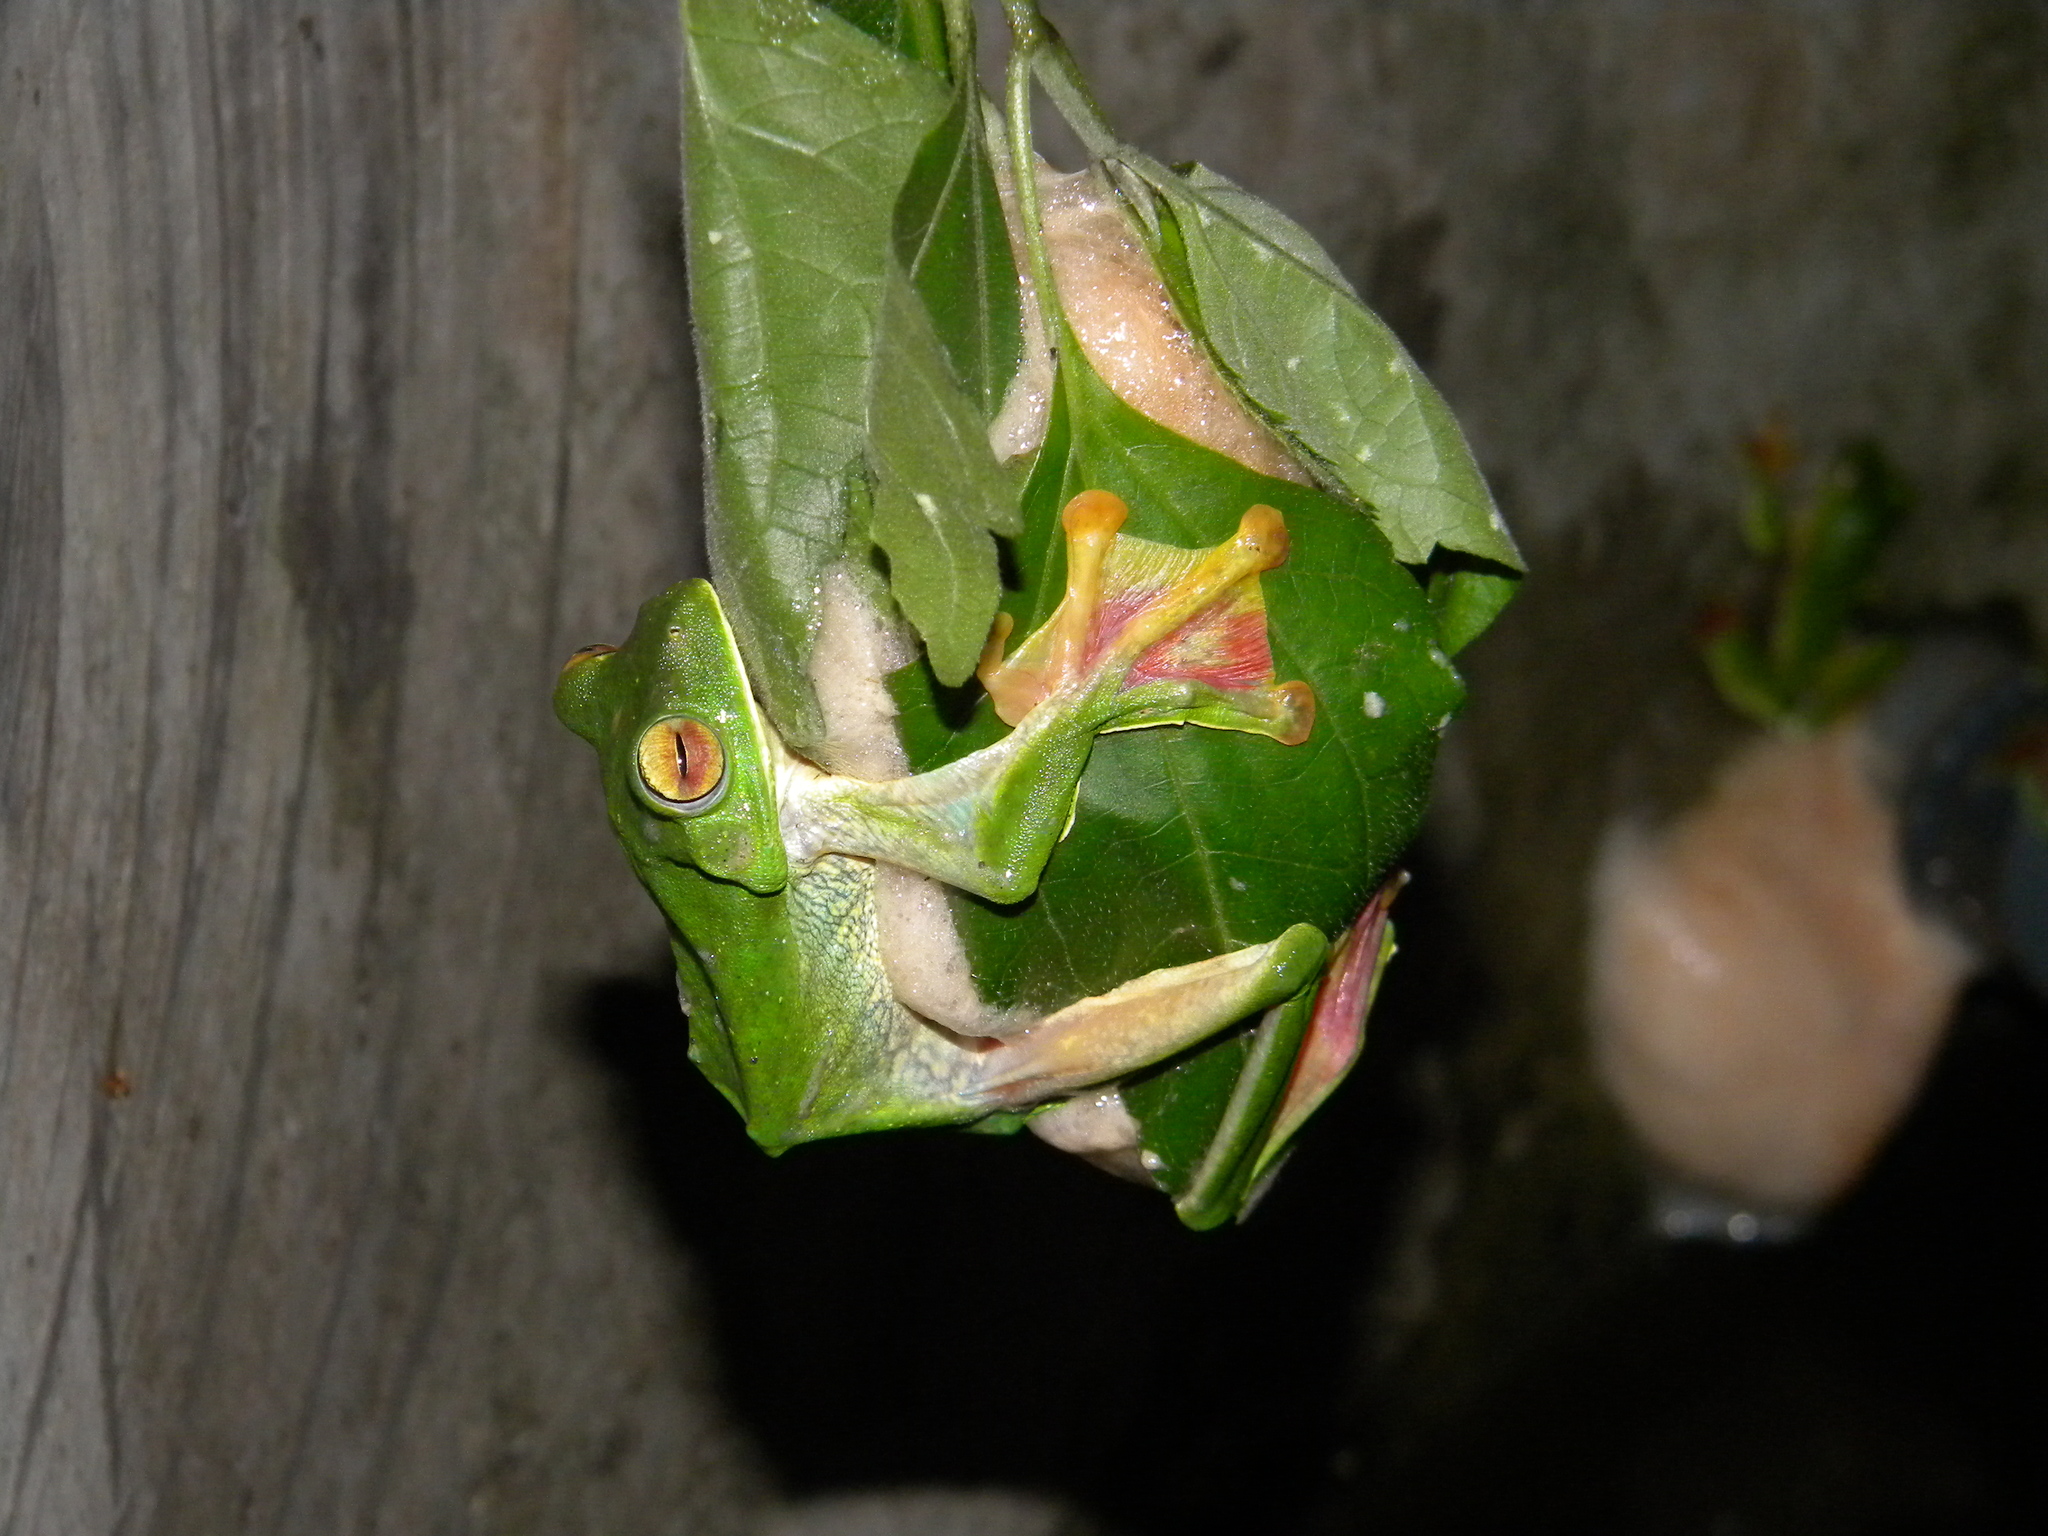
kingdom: Animalia
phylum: Chordata
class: Amphibia
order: Anura
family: Rhacophoridae
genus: Rhacophorus
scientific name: Rhacophorus malabaricus
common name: Malabar gliding frog
